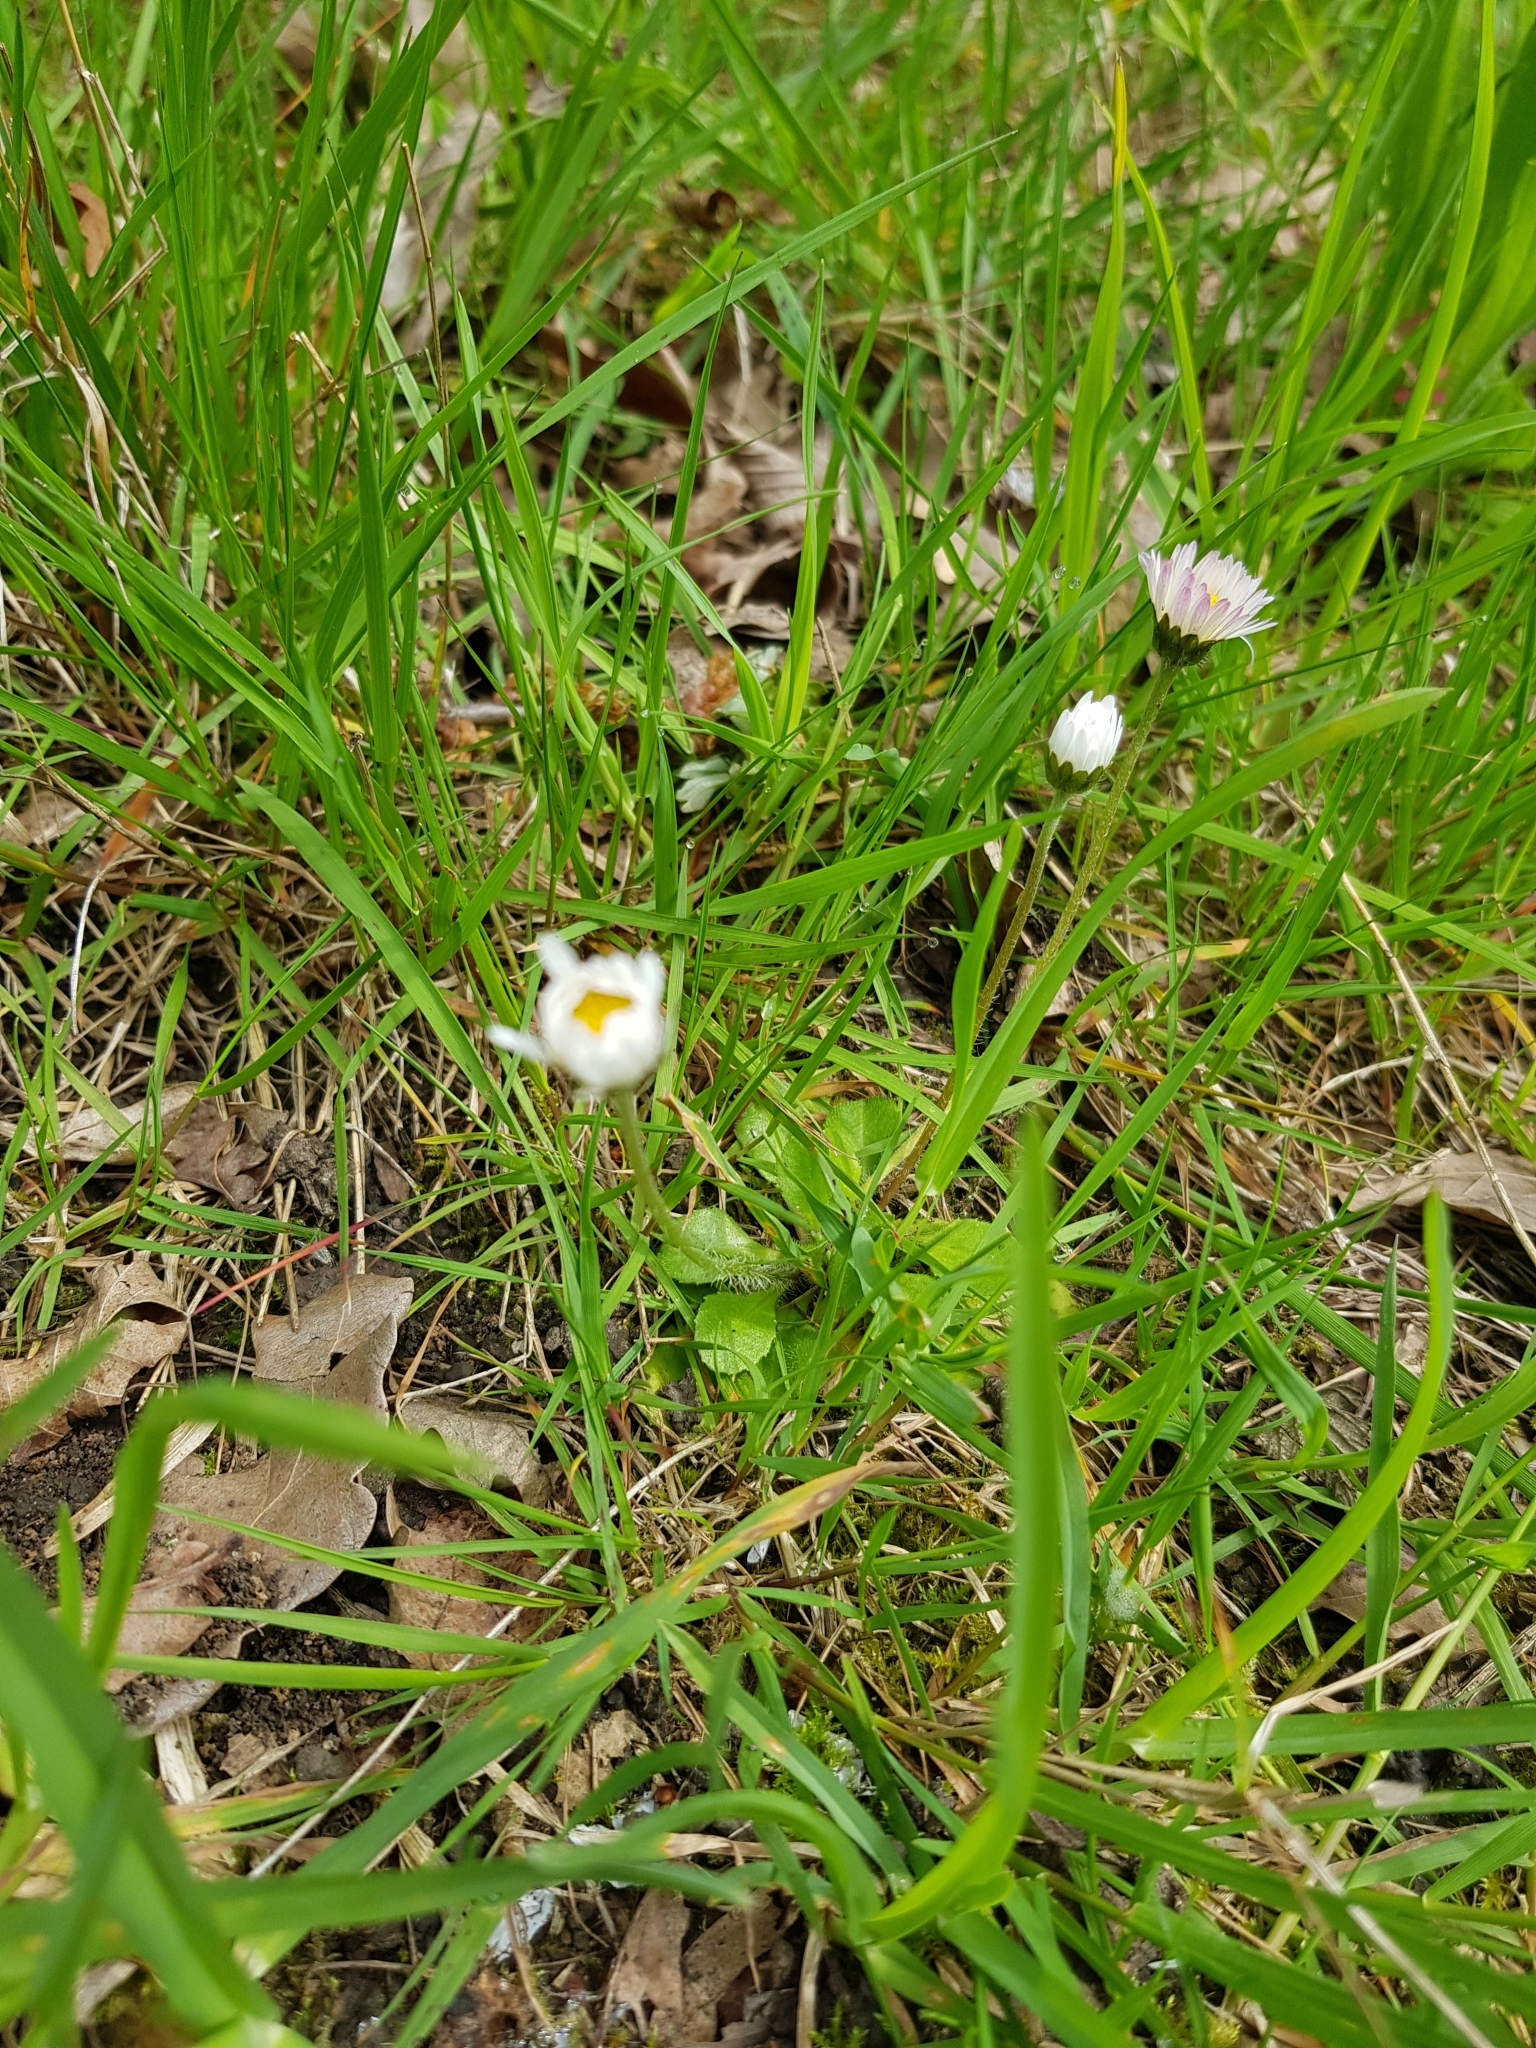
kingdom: Plantae
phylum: Tracheophyta
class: Magnoliopsida
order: Asterales
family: Asteraceae
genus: Bellis
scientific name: Bellis perennis
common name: Lawndaisy
